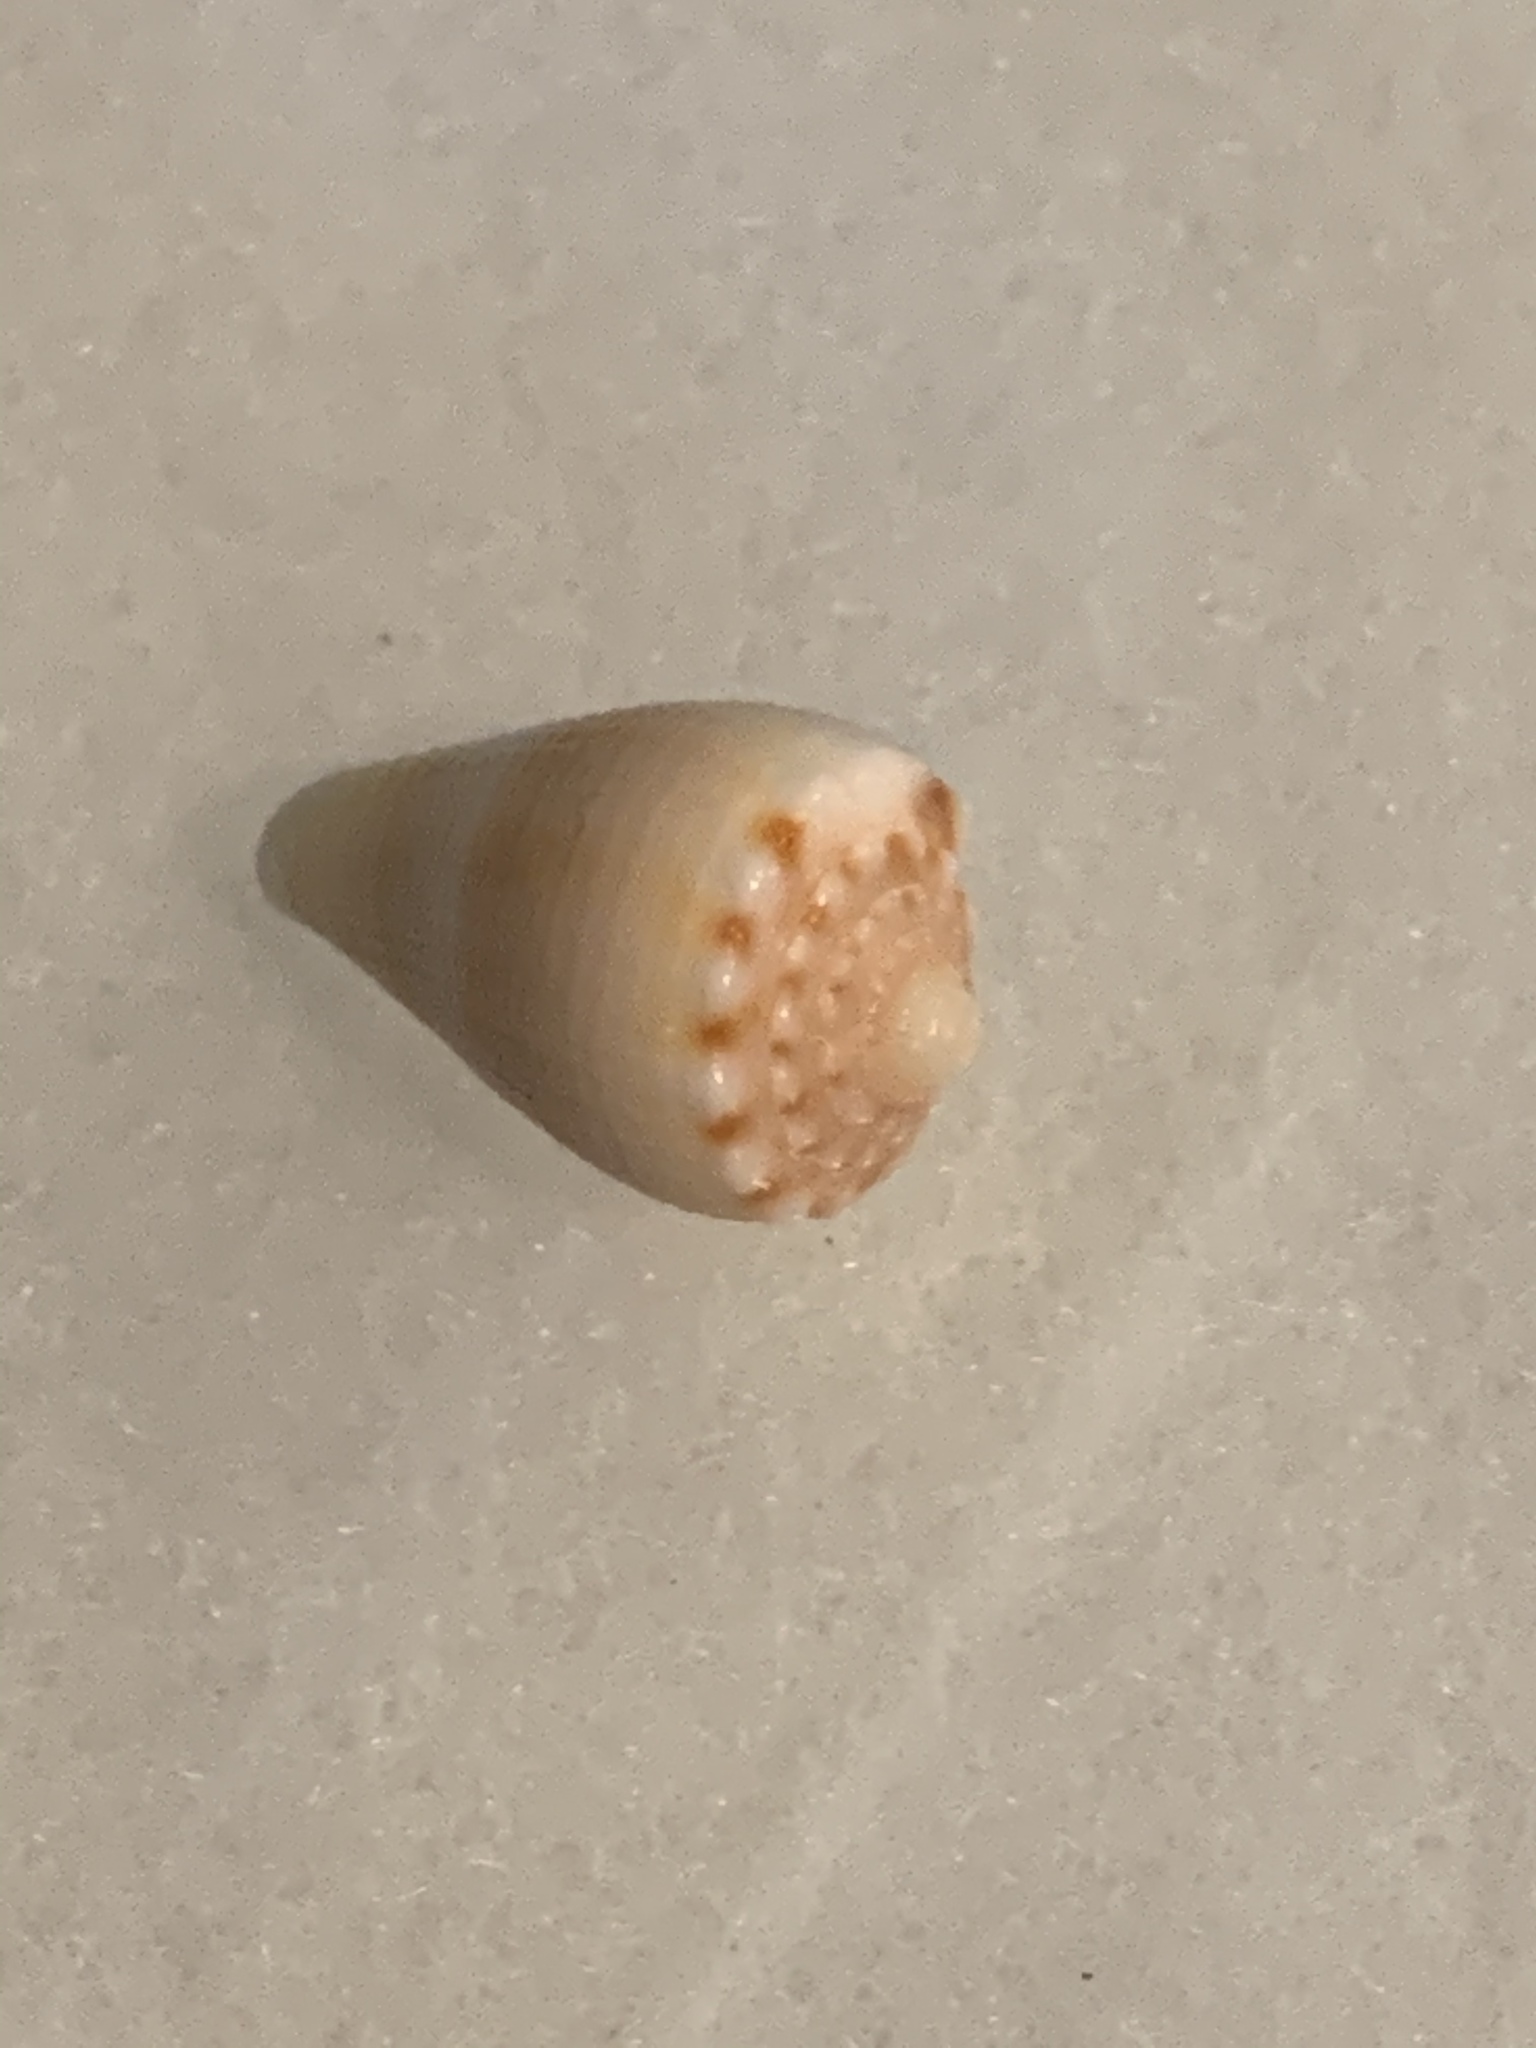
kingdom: Animalia
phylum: Mollusca
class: Gastropoda
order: Neogastropoda
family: Conidae
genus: Conus
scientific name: Conus mus
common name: Mouse cone
